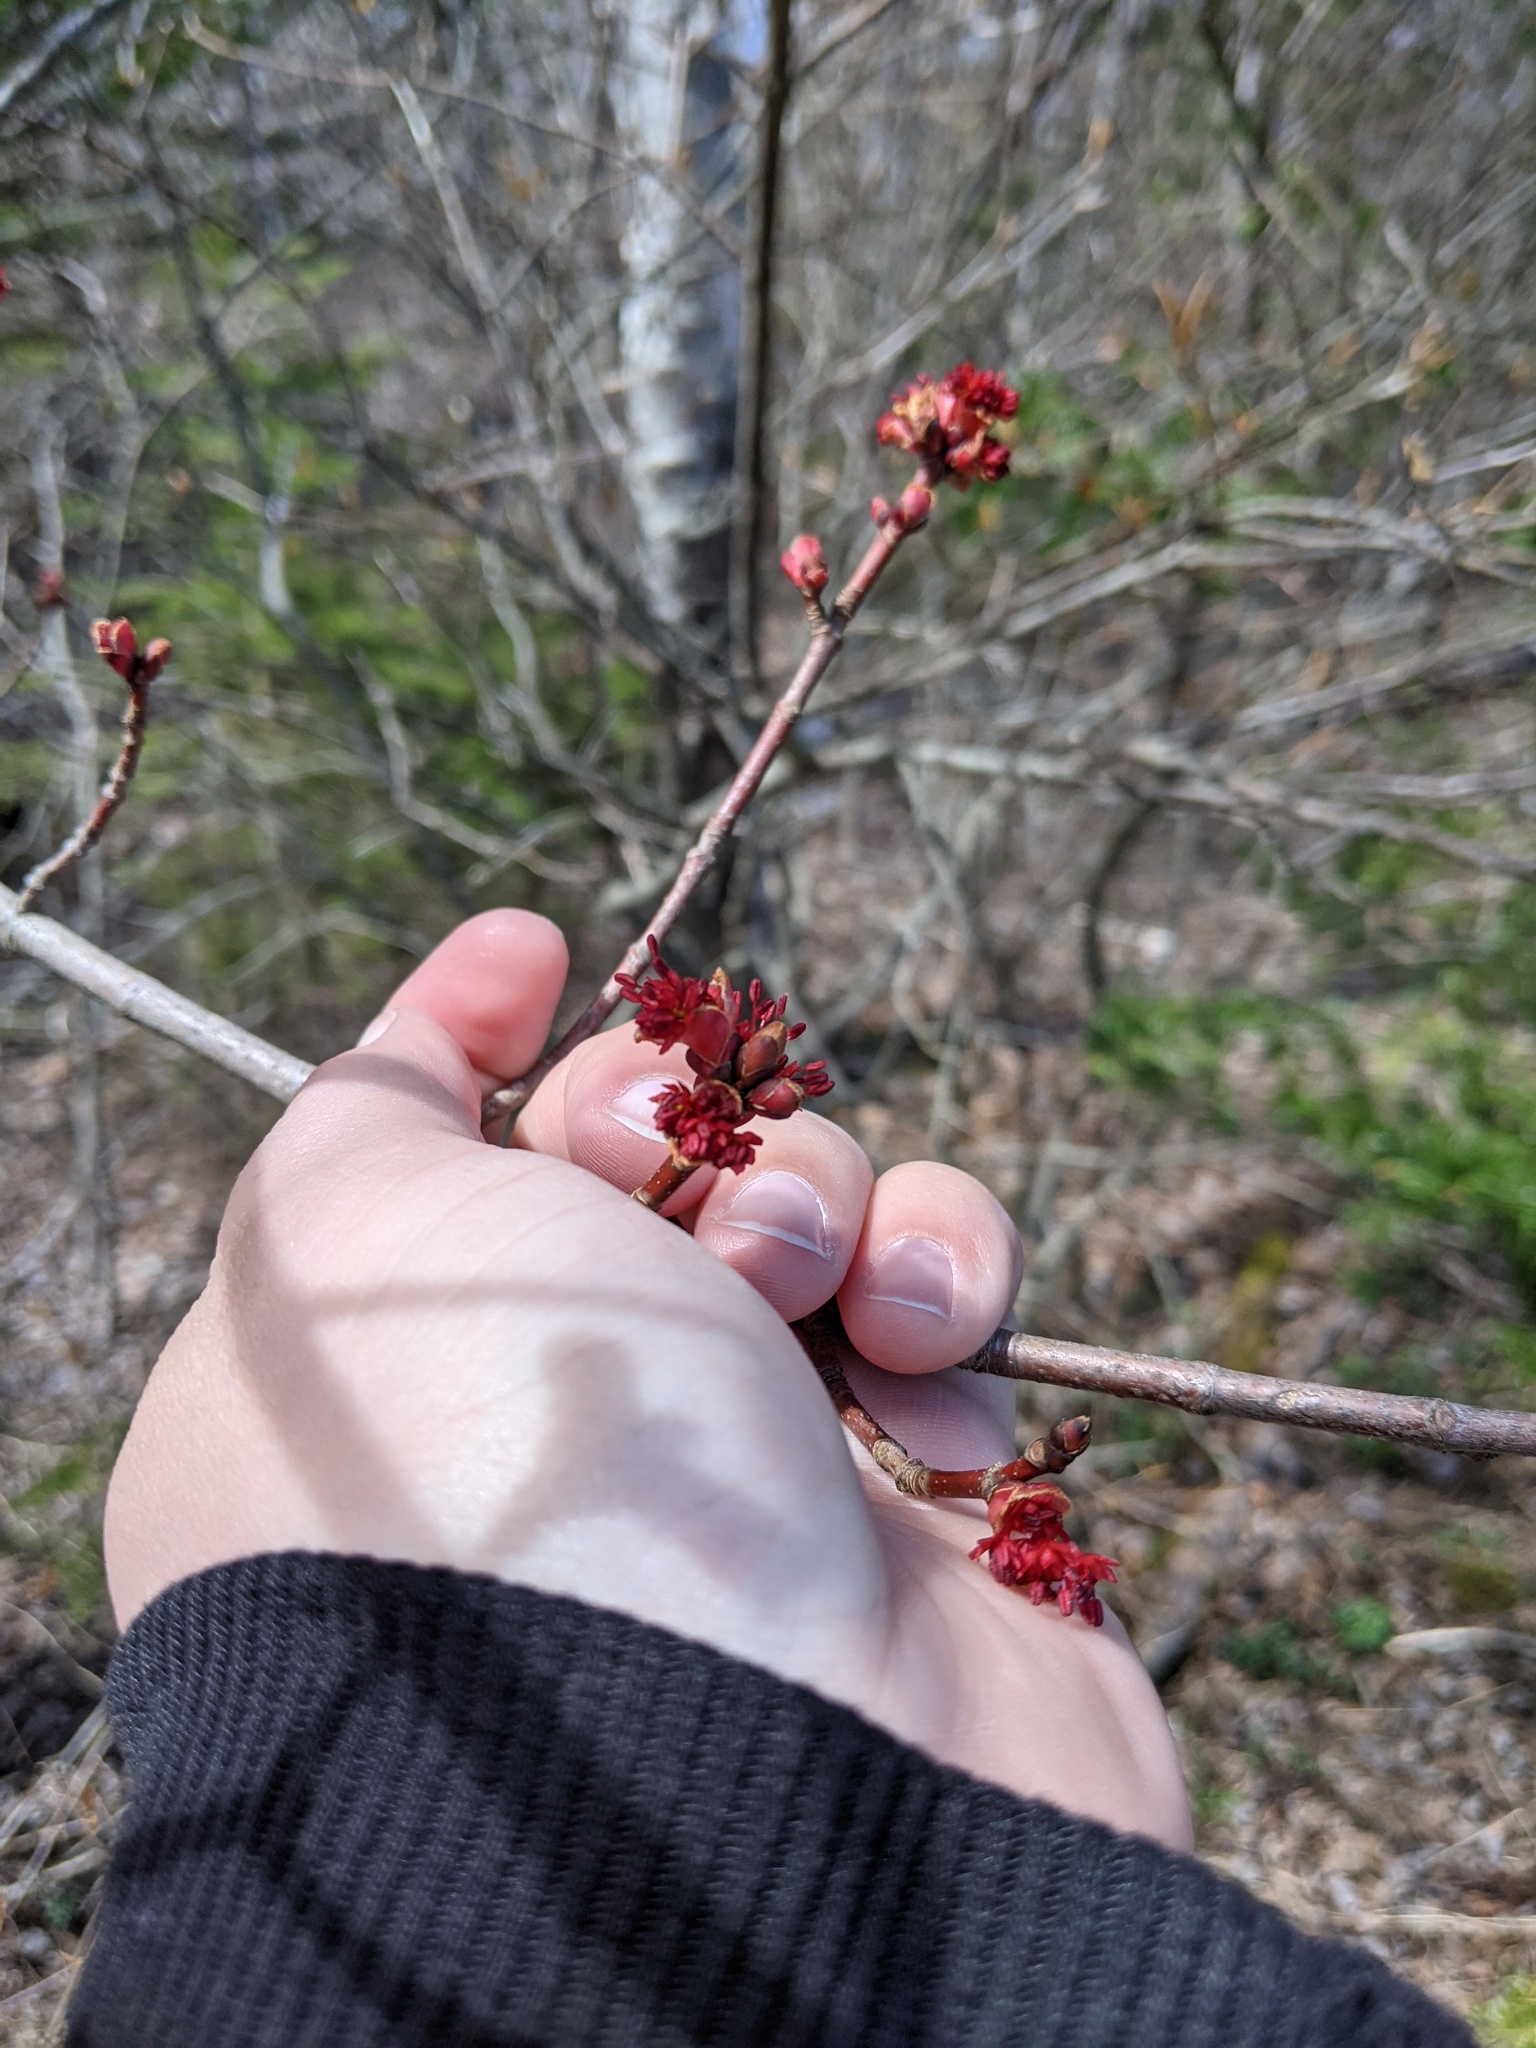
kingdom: Plantae
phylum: Tracheophyta
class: Magnoliopsida
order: Sapindales
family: Sapindaceae
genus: Acer
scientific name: Acer rubrum
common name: Red maple
